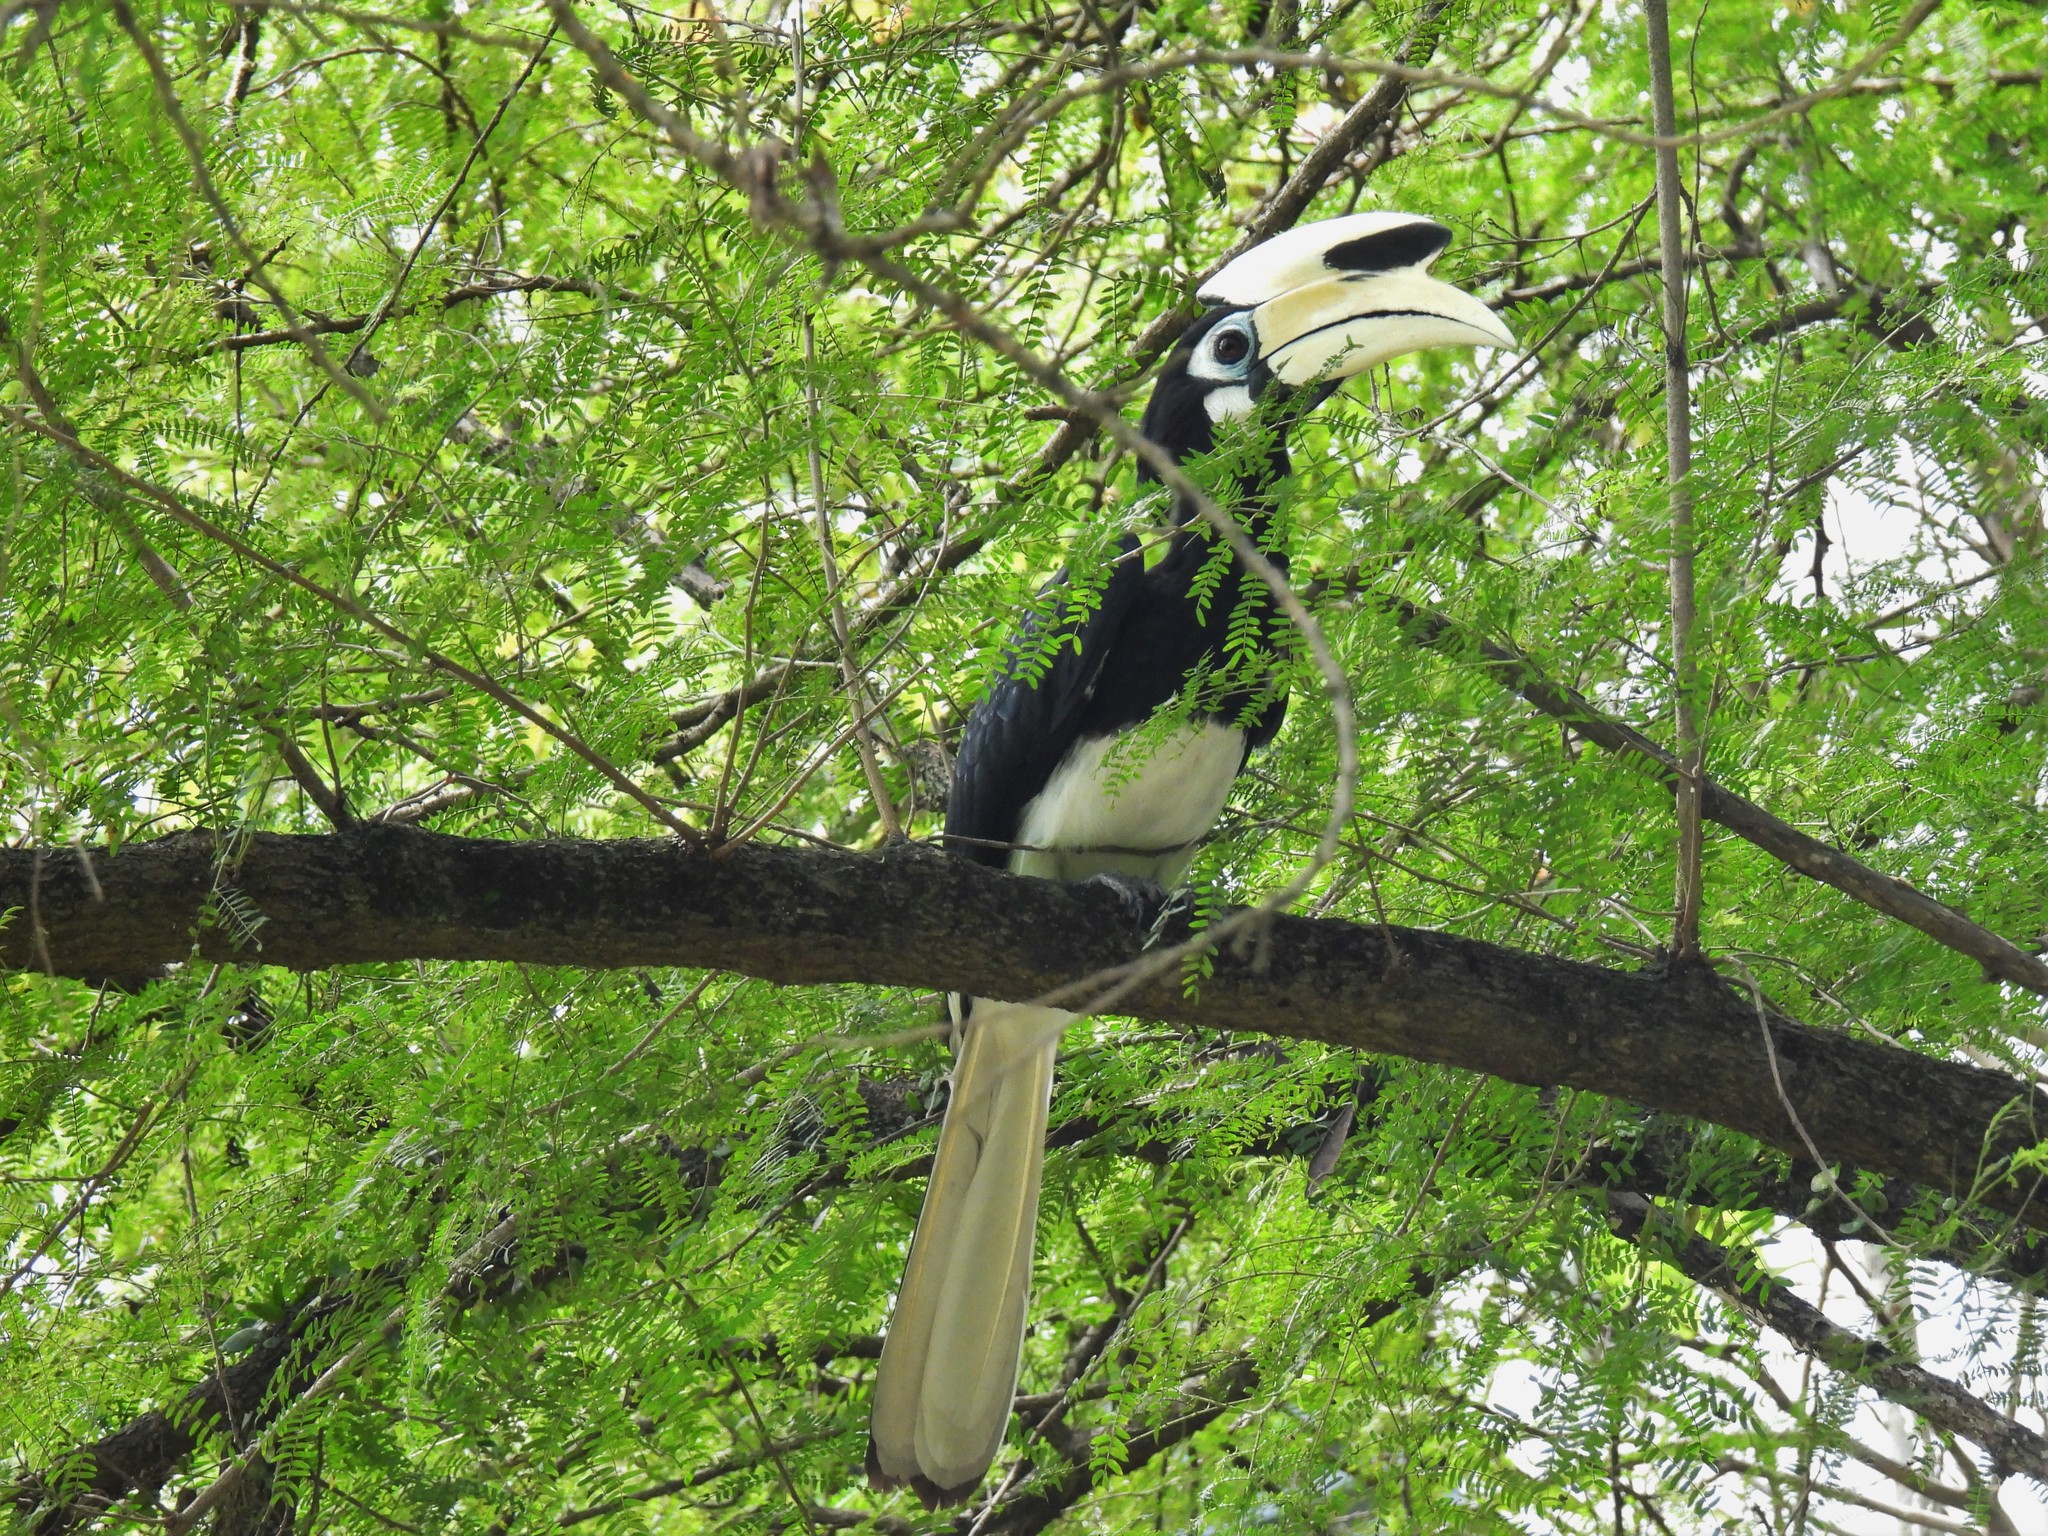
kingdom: Animalia
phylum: Chordata
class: Aves
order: Bucerotiformes
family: Bucerotidae
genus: Anthracoceros
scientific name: Anthracoceros albirostris
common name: Oriental pied-hornbill
